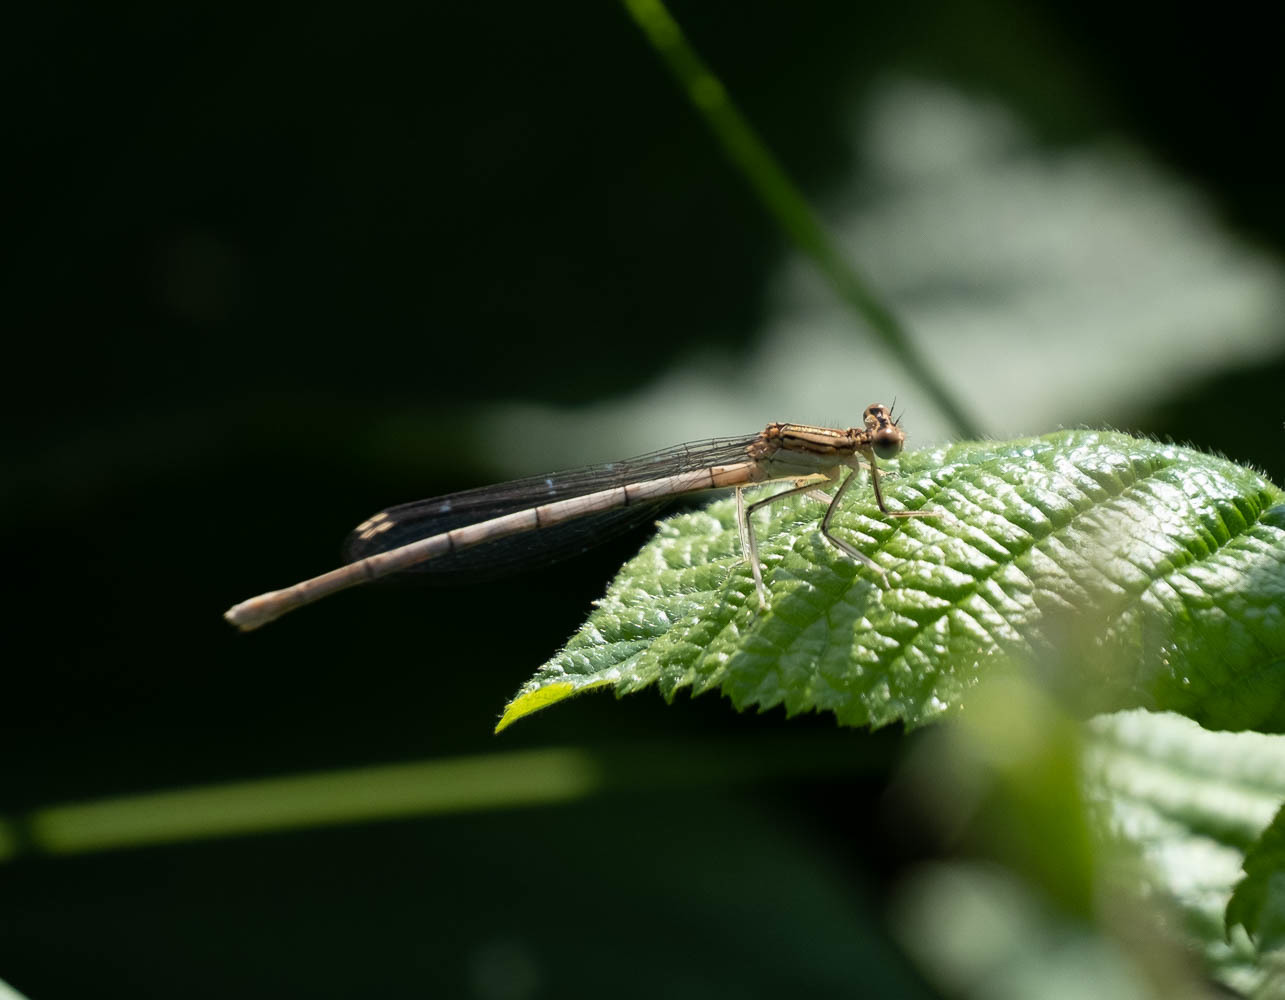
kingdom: Animalia
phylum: Arthropoda
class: Insecta
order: Odonata
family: Platycnemididae
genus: Platycnemis
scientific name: Platycnemis pennipes
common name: White-legged damselfly
